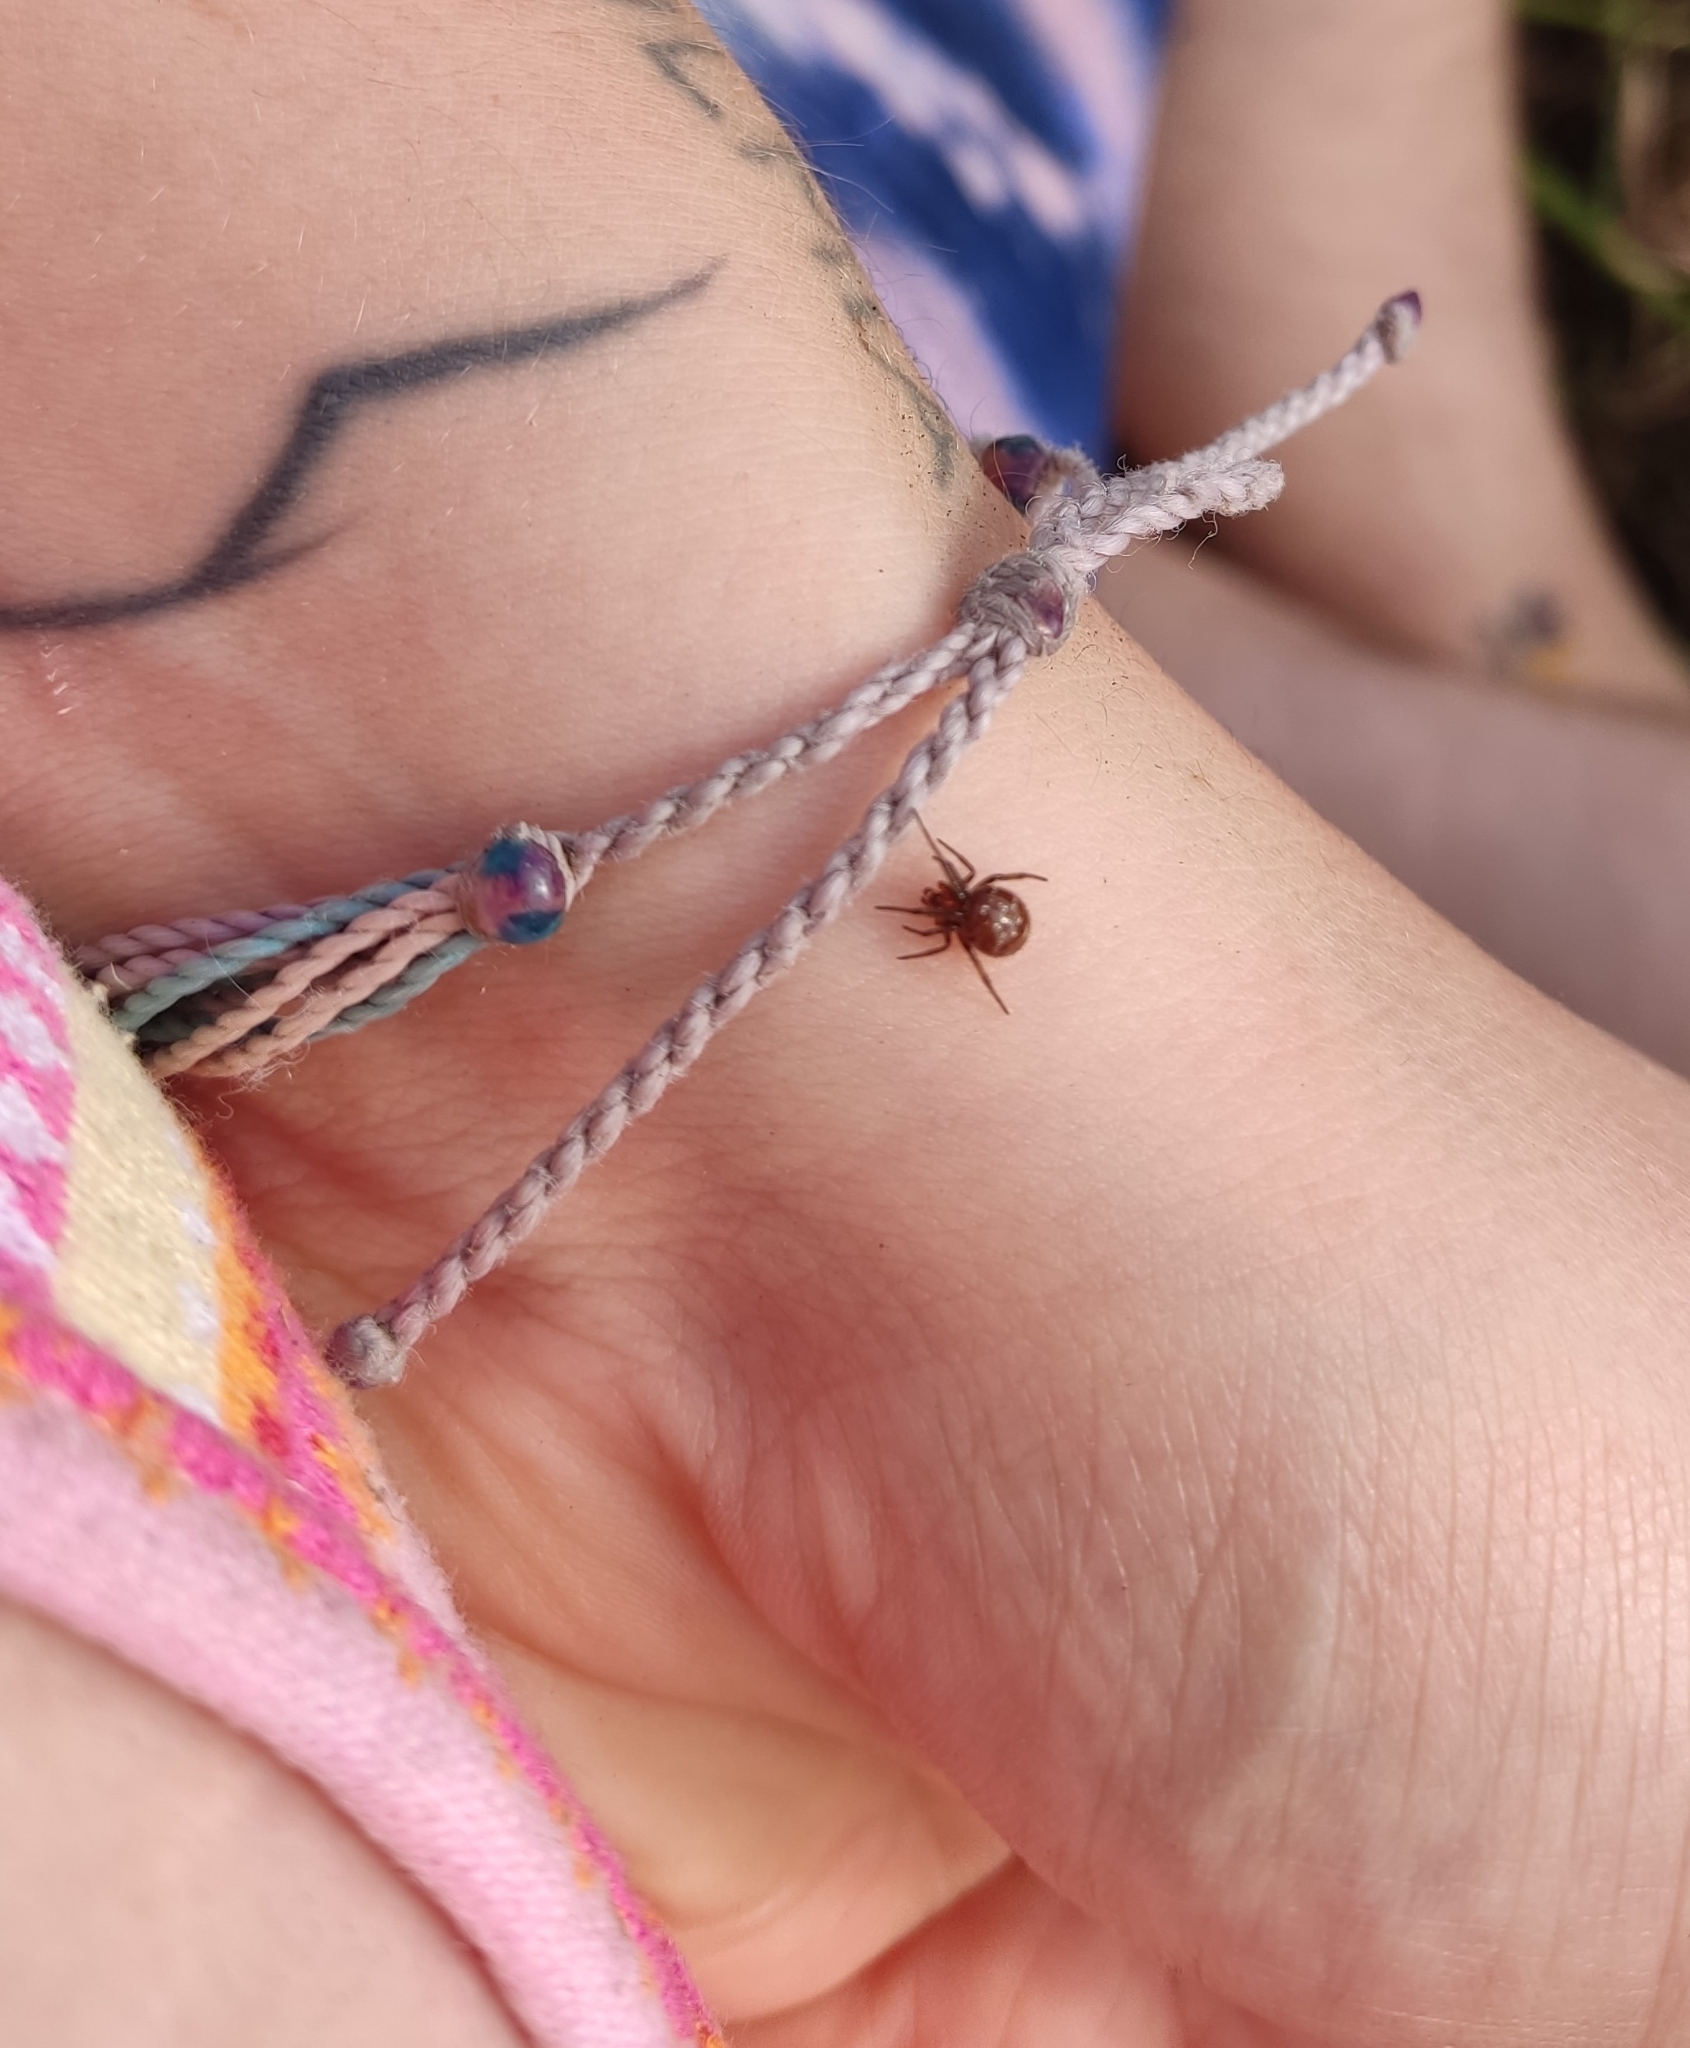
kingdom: Animalia
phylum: Arthropoda
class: Arachnida
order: Araneae
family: Theridiidae
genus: Steatoda
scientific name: Steatoda capensis
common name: Cobweb weaver
